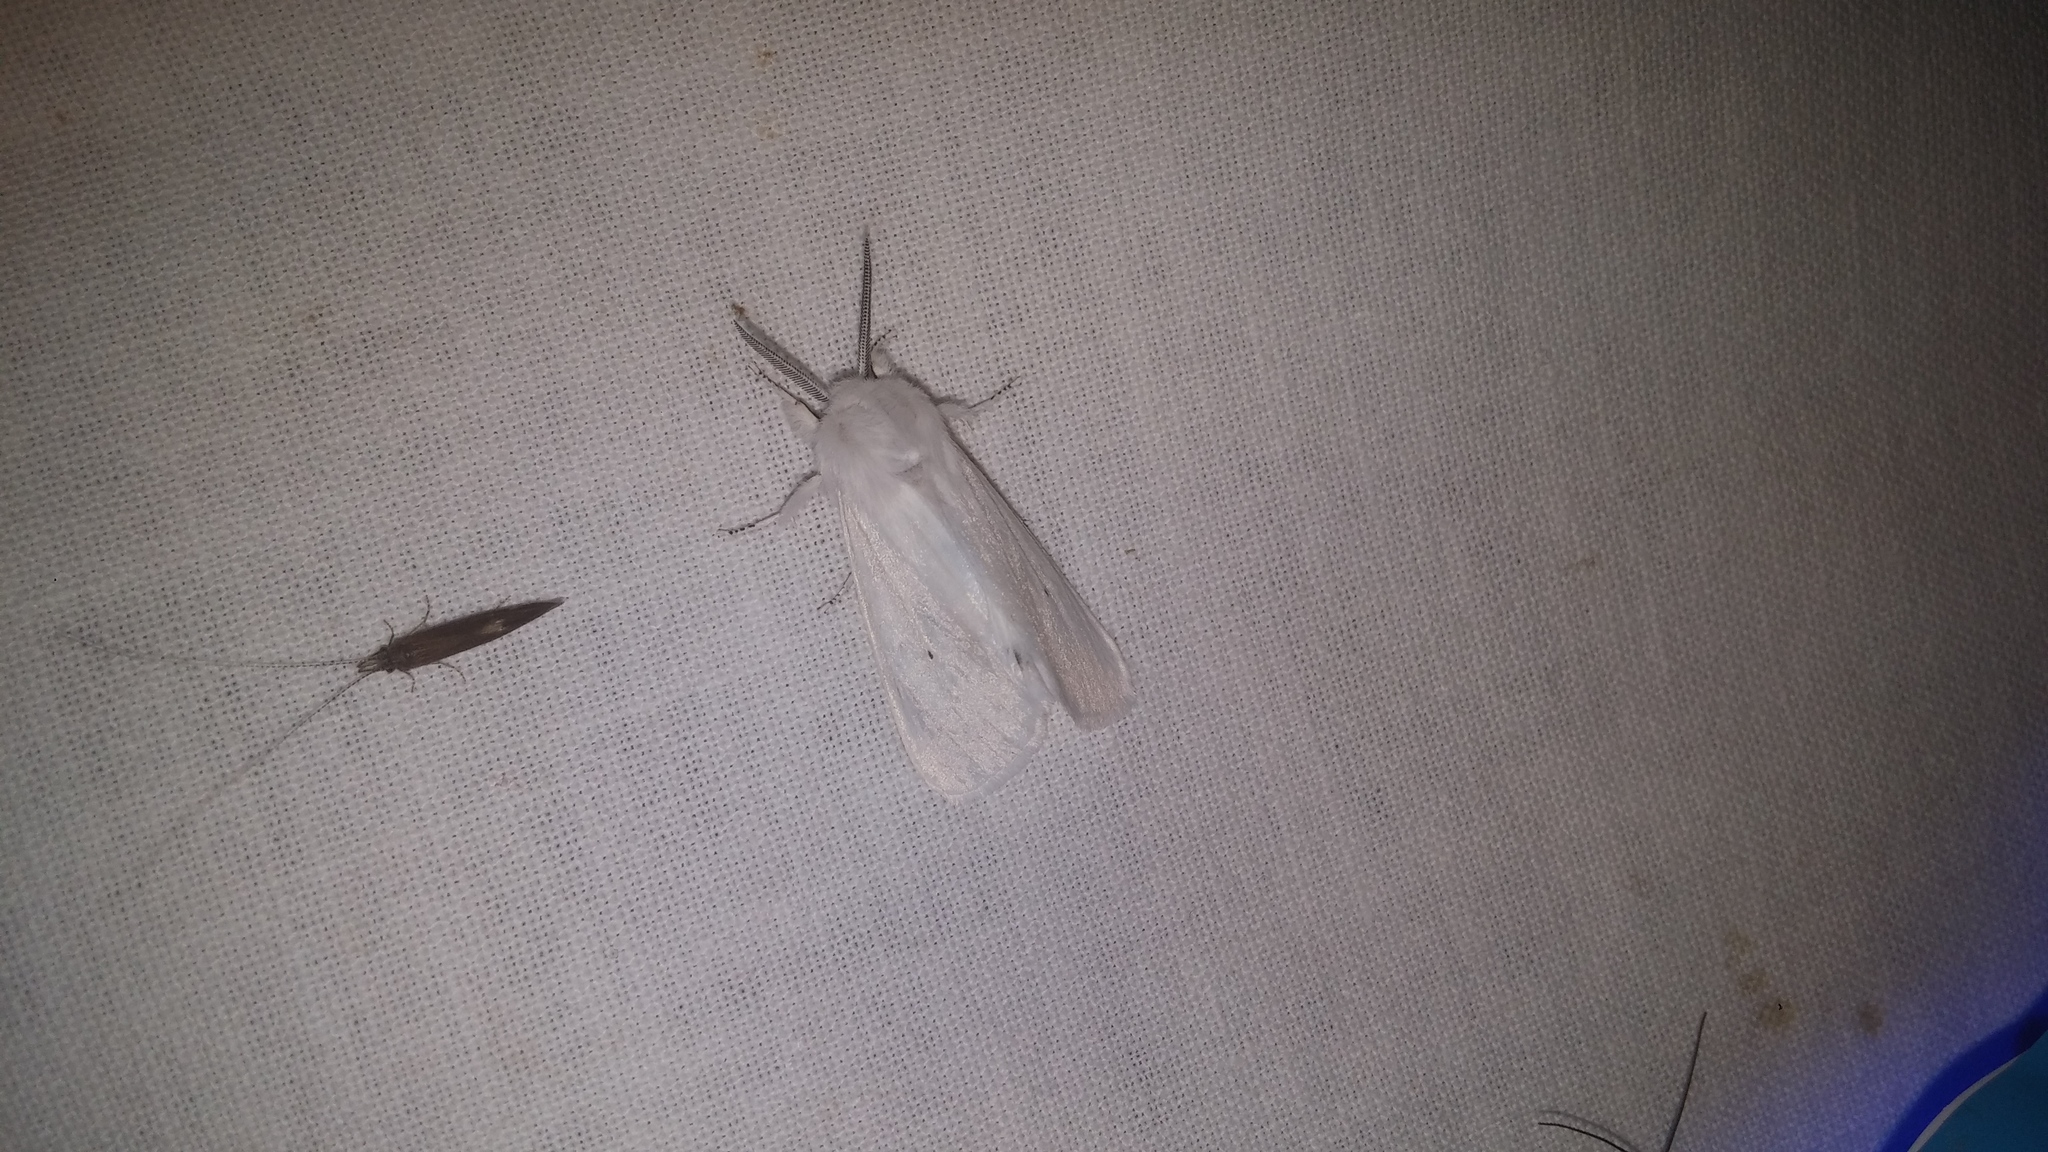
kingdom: Animalia
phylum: Arthropoda
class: Insecta
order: Lepidoptera
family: Erebidae
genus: Spilosoma
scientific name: Spilosoma virginica
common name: Virginia tiger moth
